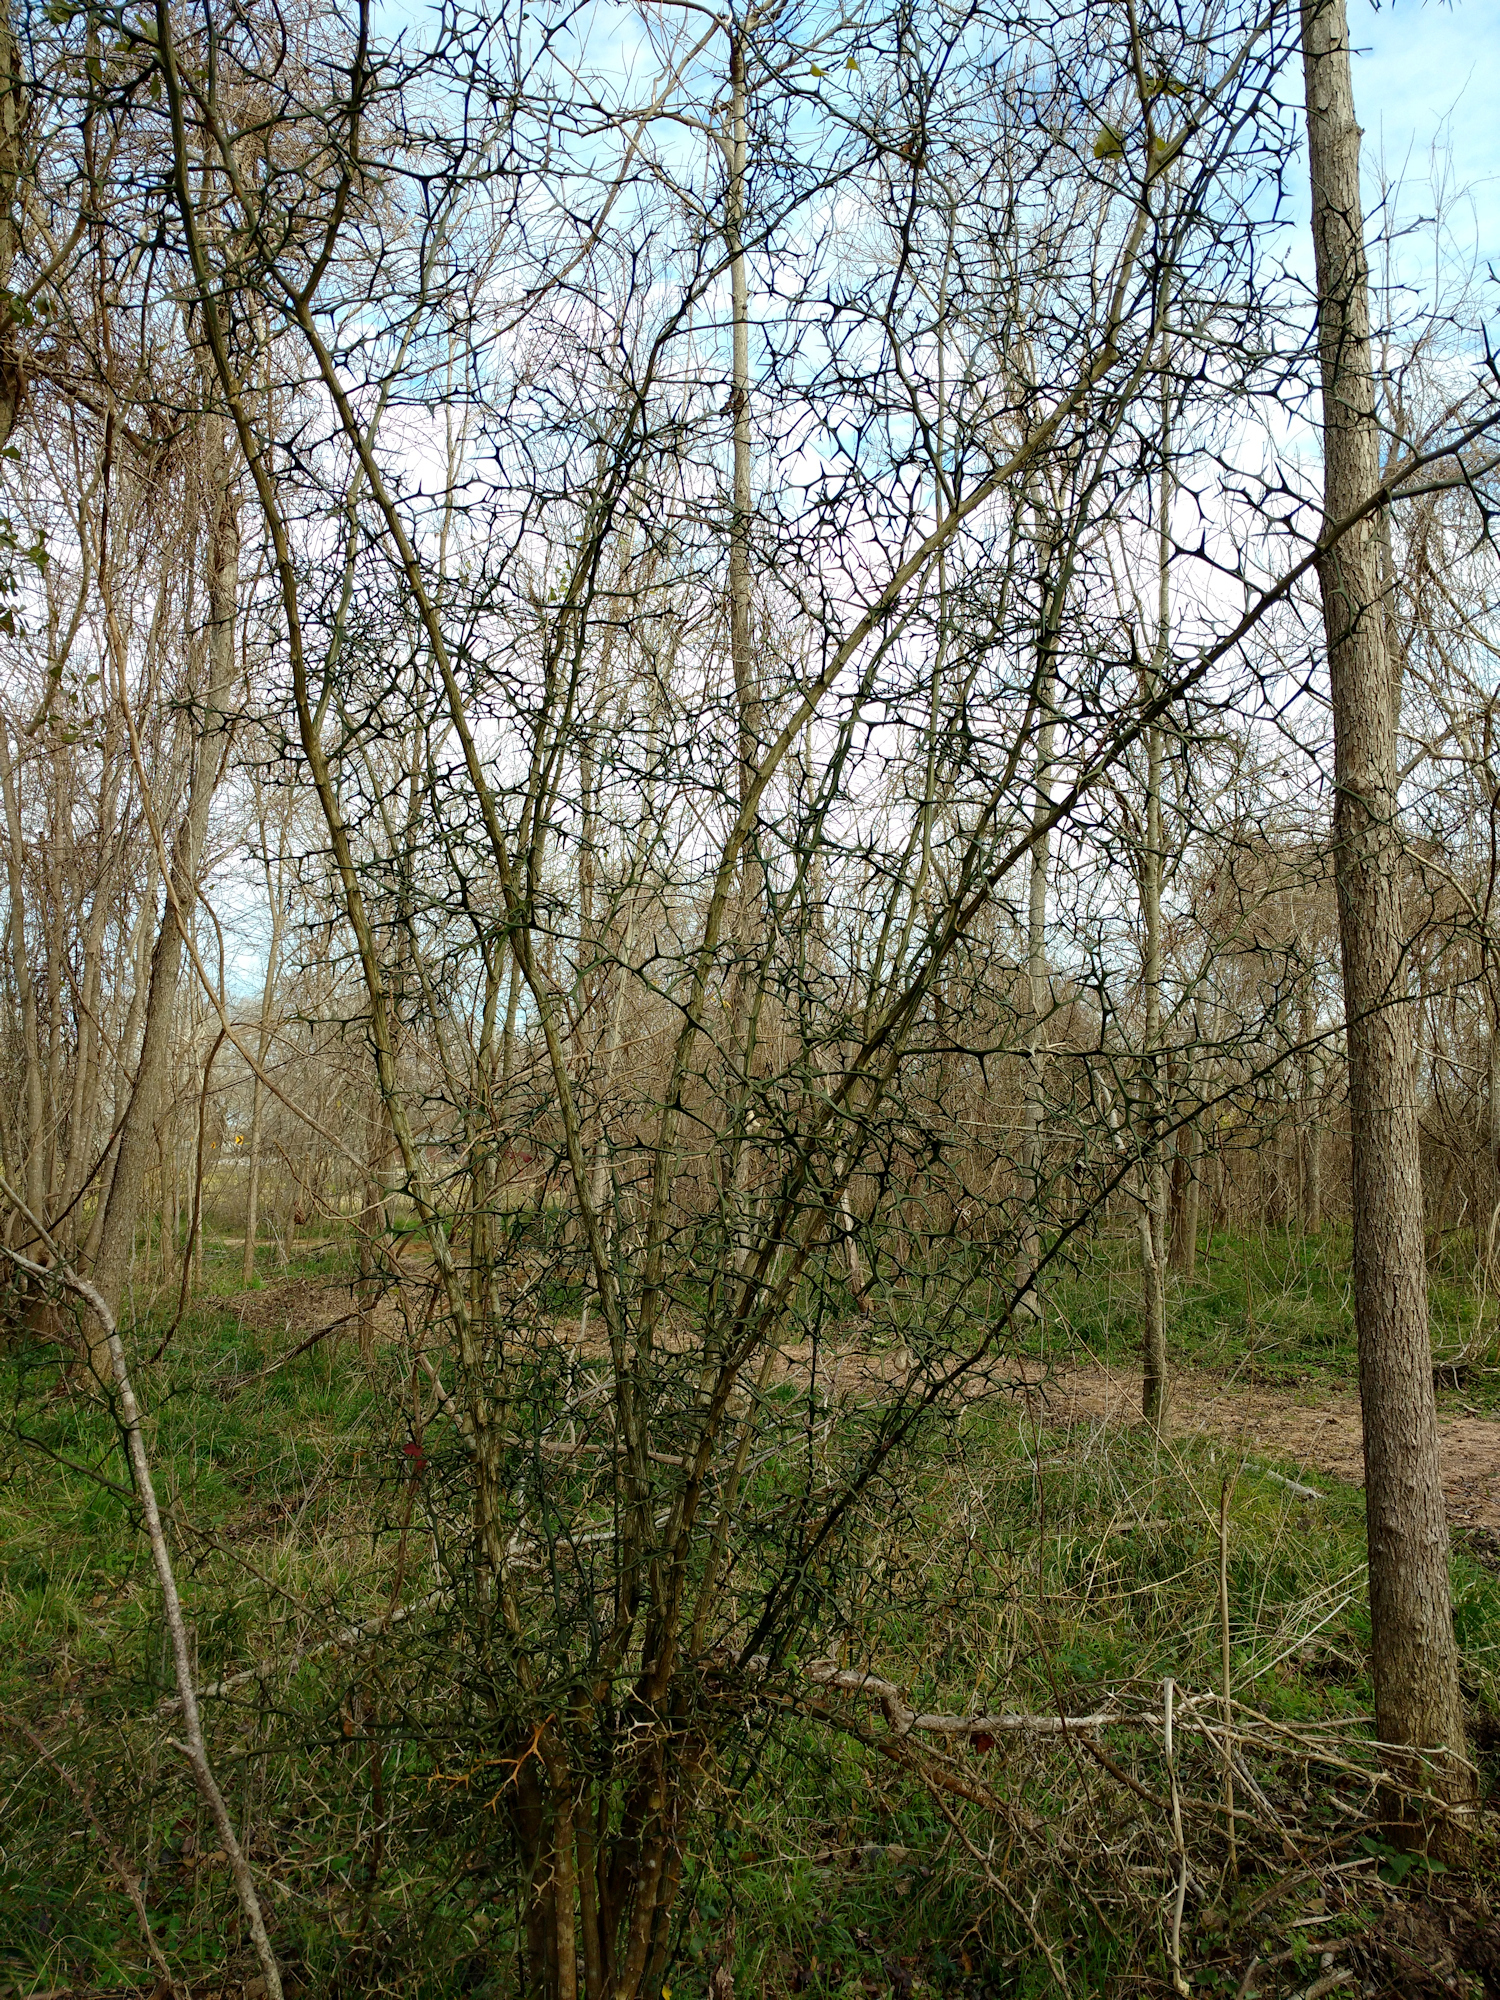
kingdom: Plantae
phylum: Tracheophyta
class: Magnoliopsida
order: Sapindales
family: Rutaceae
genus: Citrus
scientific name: Citrus trifoliata
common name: Japanese bitter-orange
